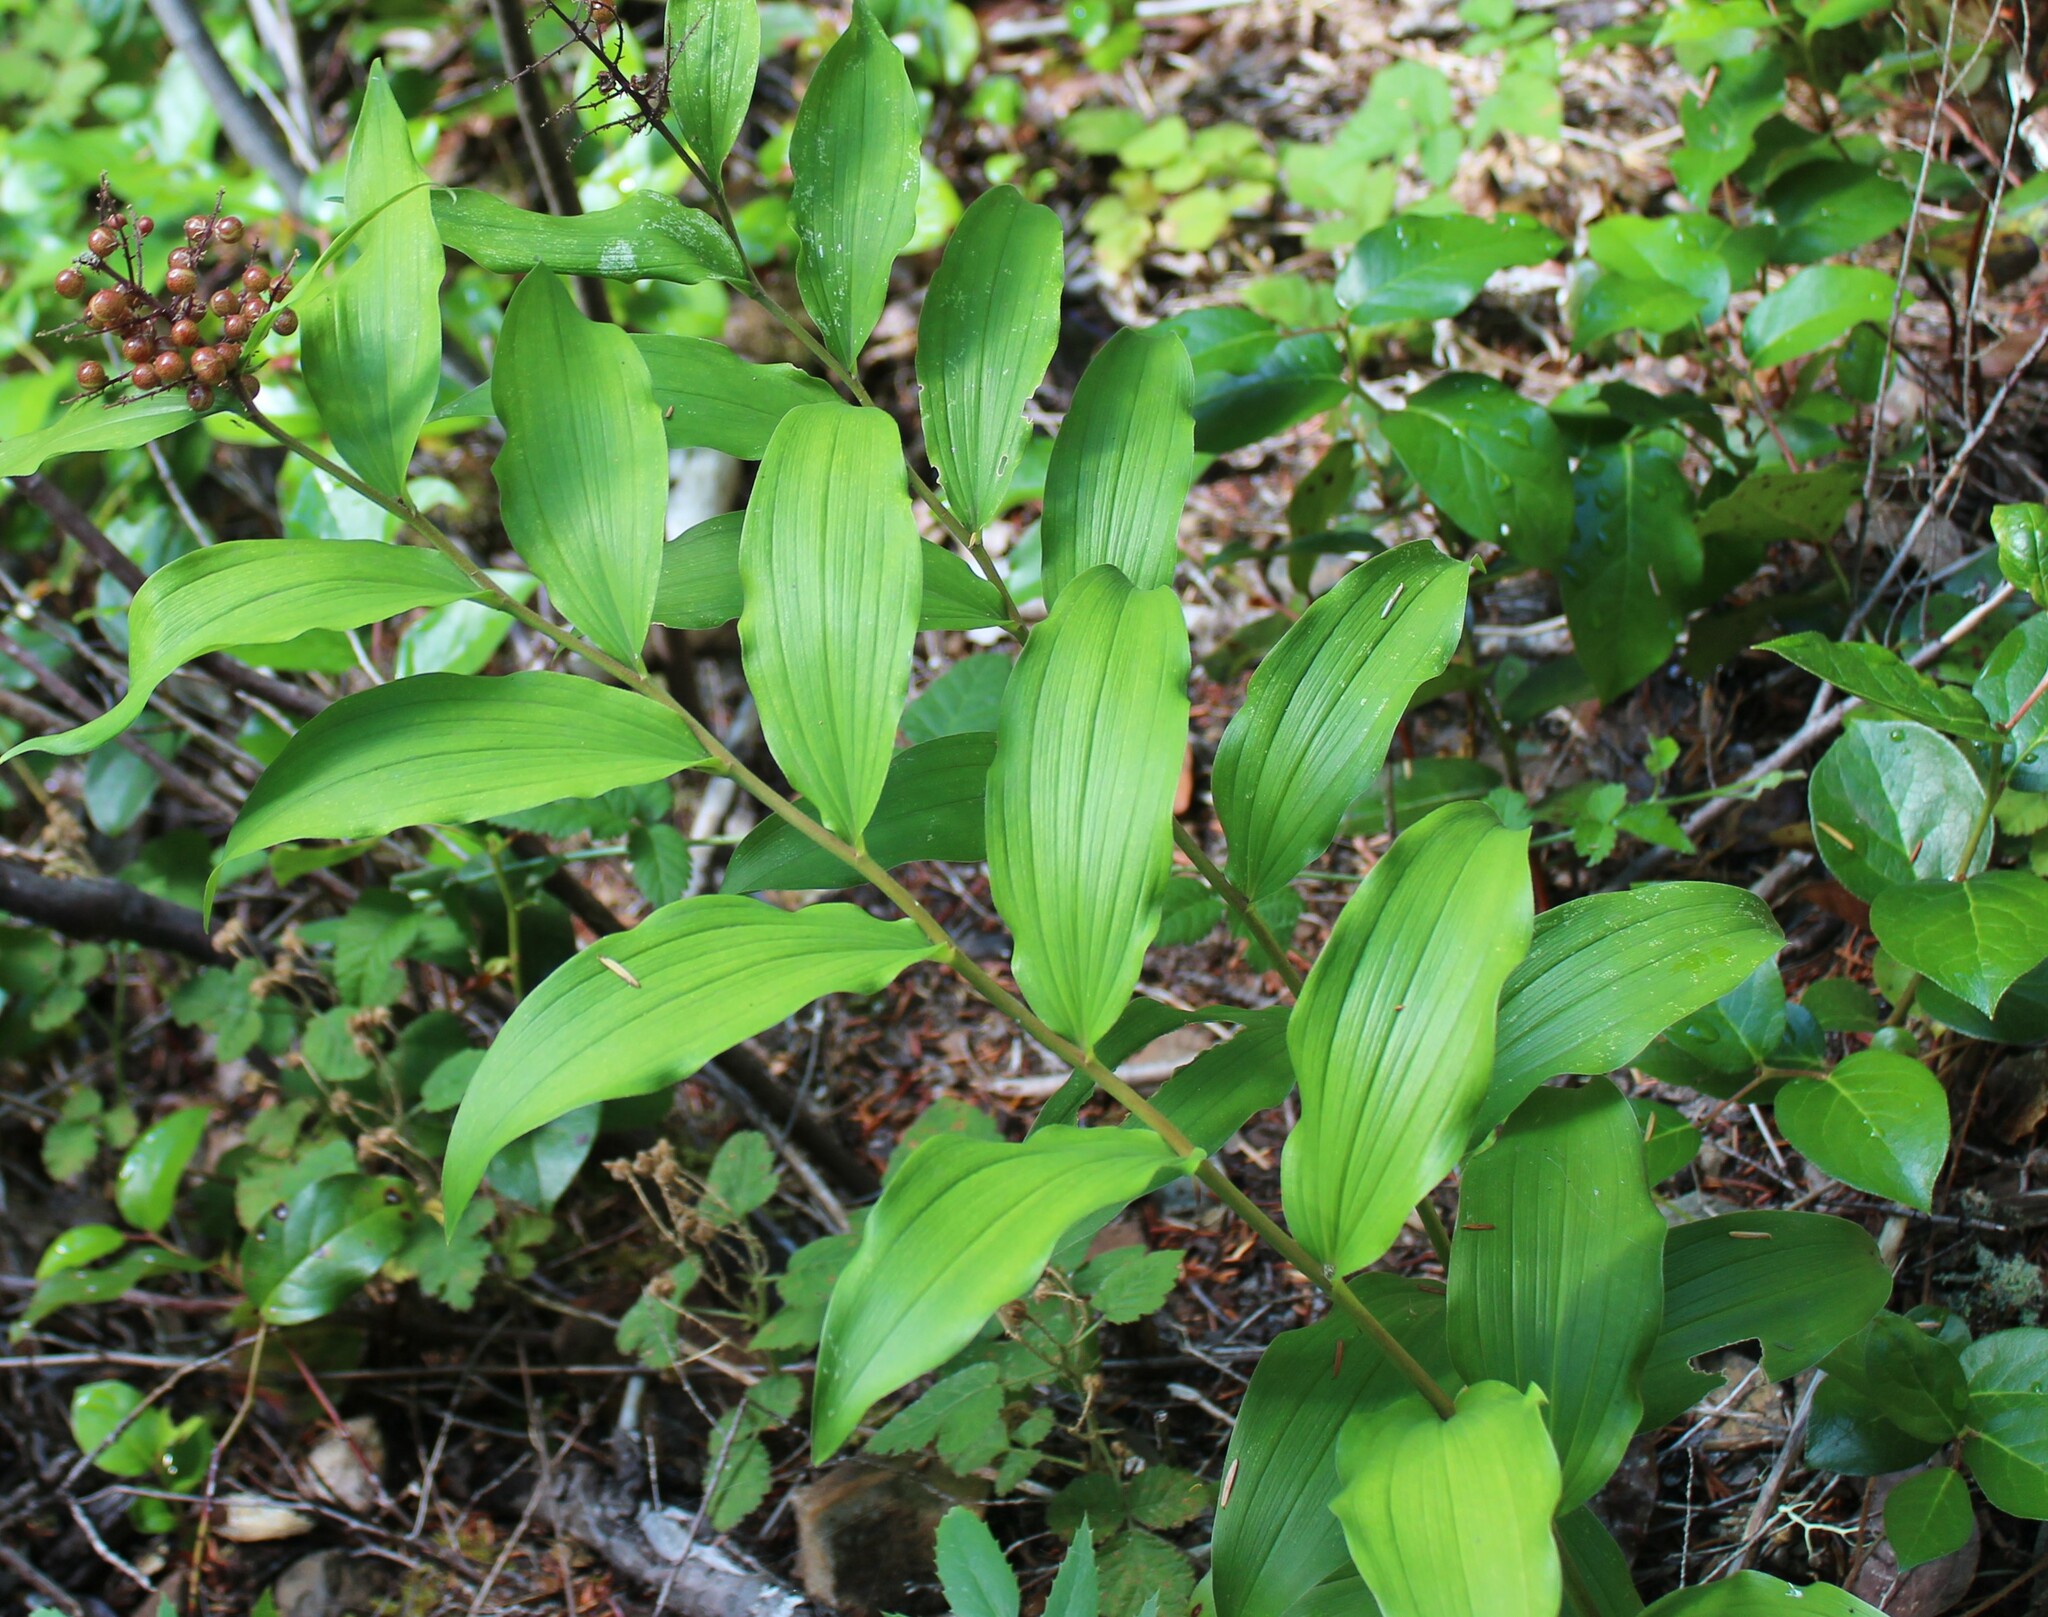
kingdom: Plantae
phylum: Tracheophyta
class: Liliopsida
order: Asparagales
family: Asparagaceae
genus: Maianthemum
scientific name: Maianthemum racemosum
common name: False spikenard
